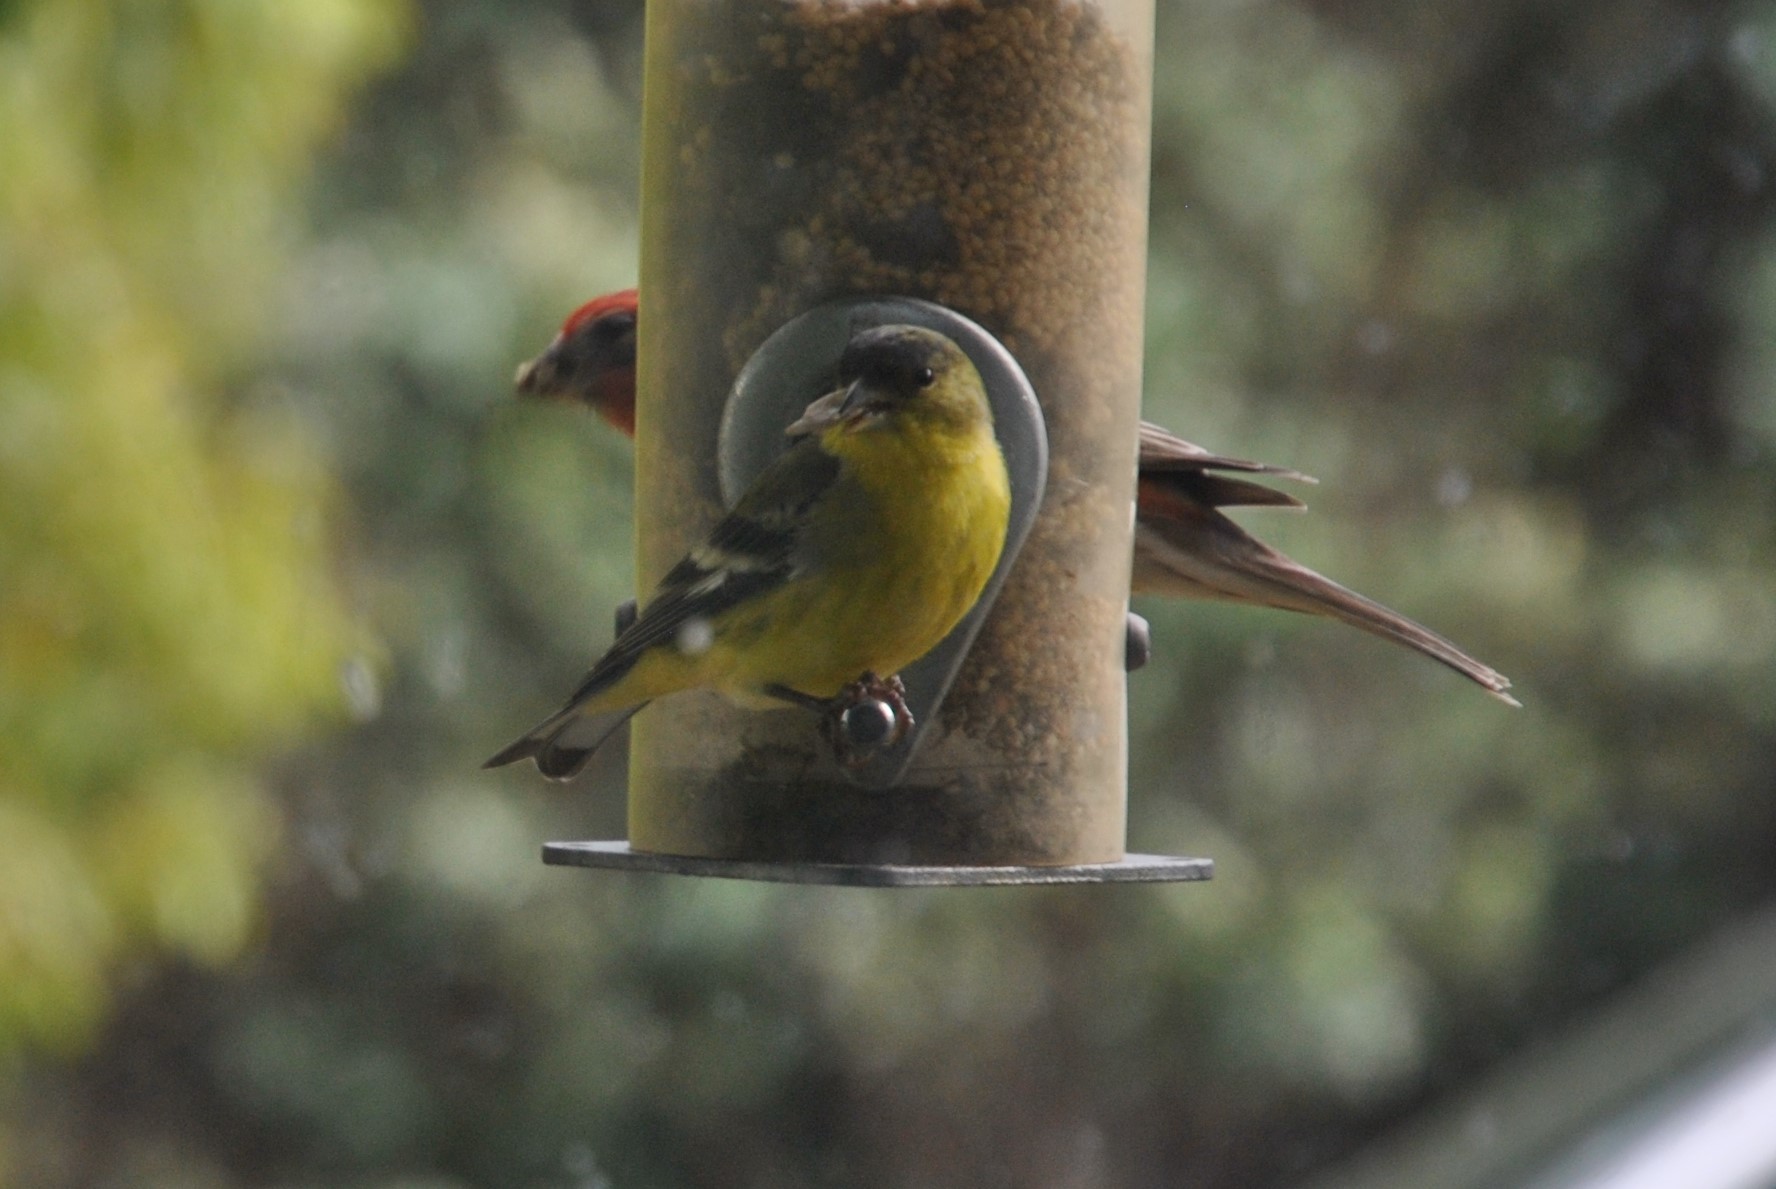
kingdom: Animalia
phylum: Chordata
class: Aves
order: Passeriformes
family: Fringillidae
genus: Spinus
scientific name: Spinus psaltria
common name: Lesser goldfinch
